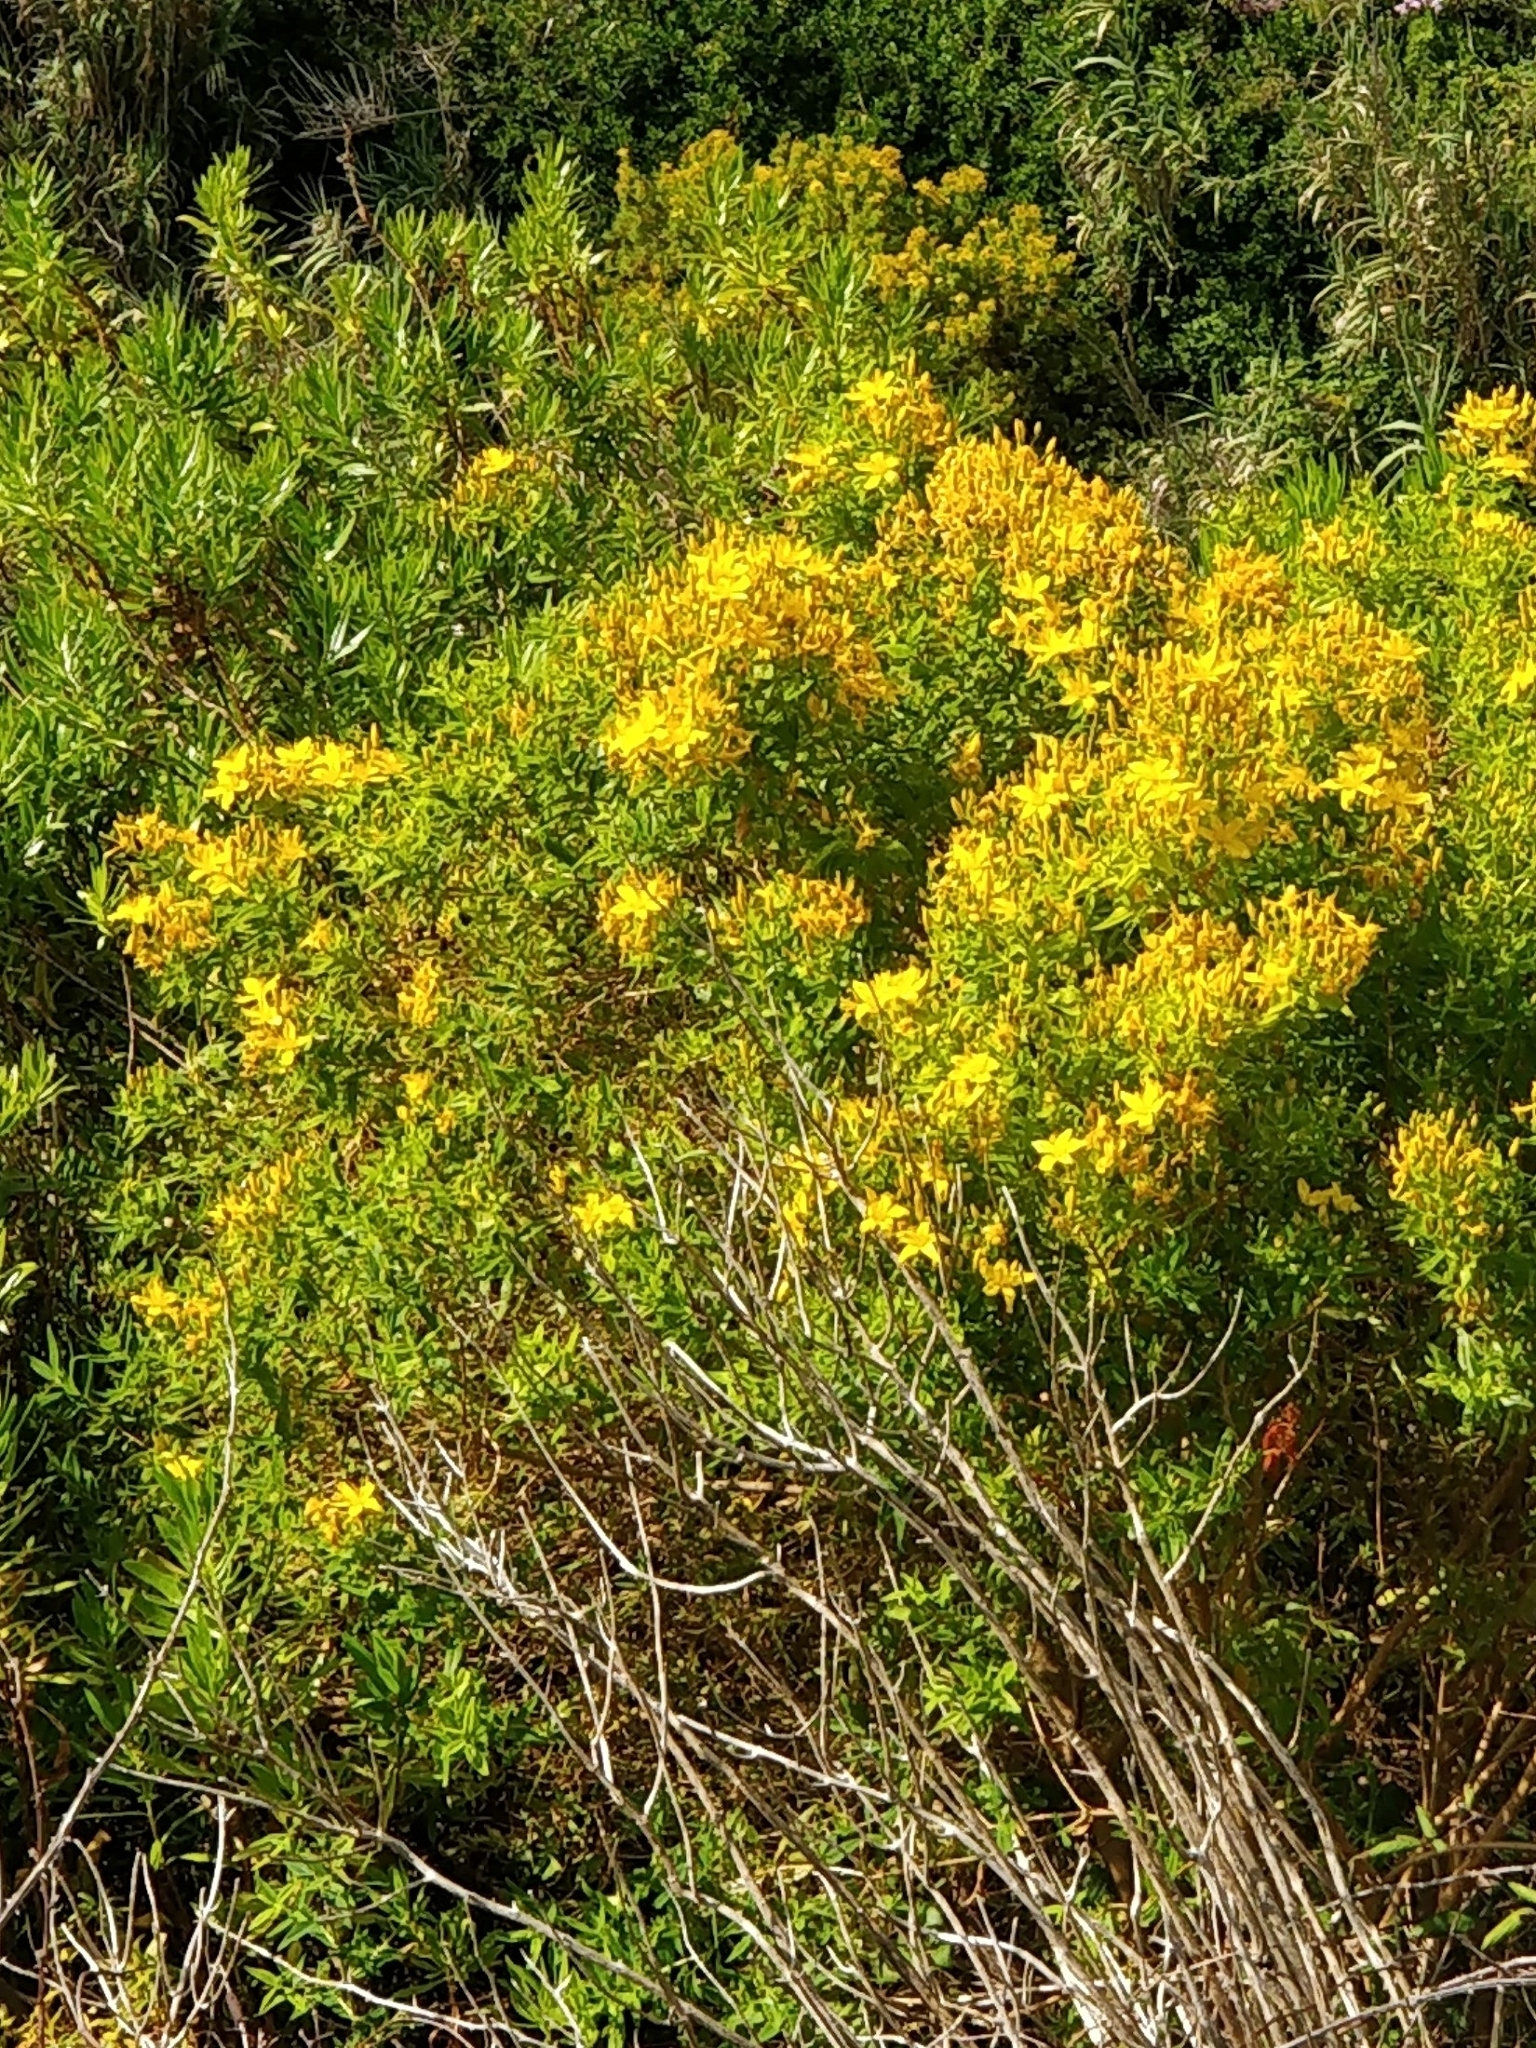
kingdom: Plantae
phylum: Tracheophyta
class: Magnoliopsida
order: Malpighiales
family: Hypericaceae
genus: Hypericum
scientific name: Hypericum canariense
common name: Canary island st. johnswort
